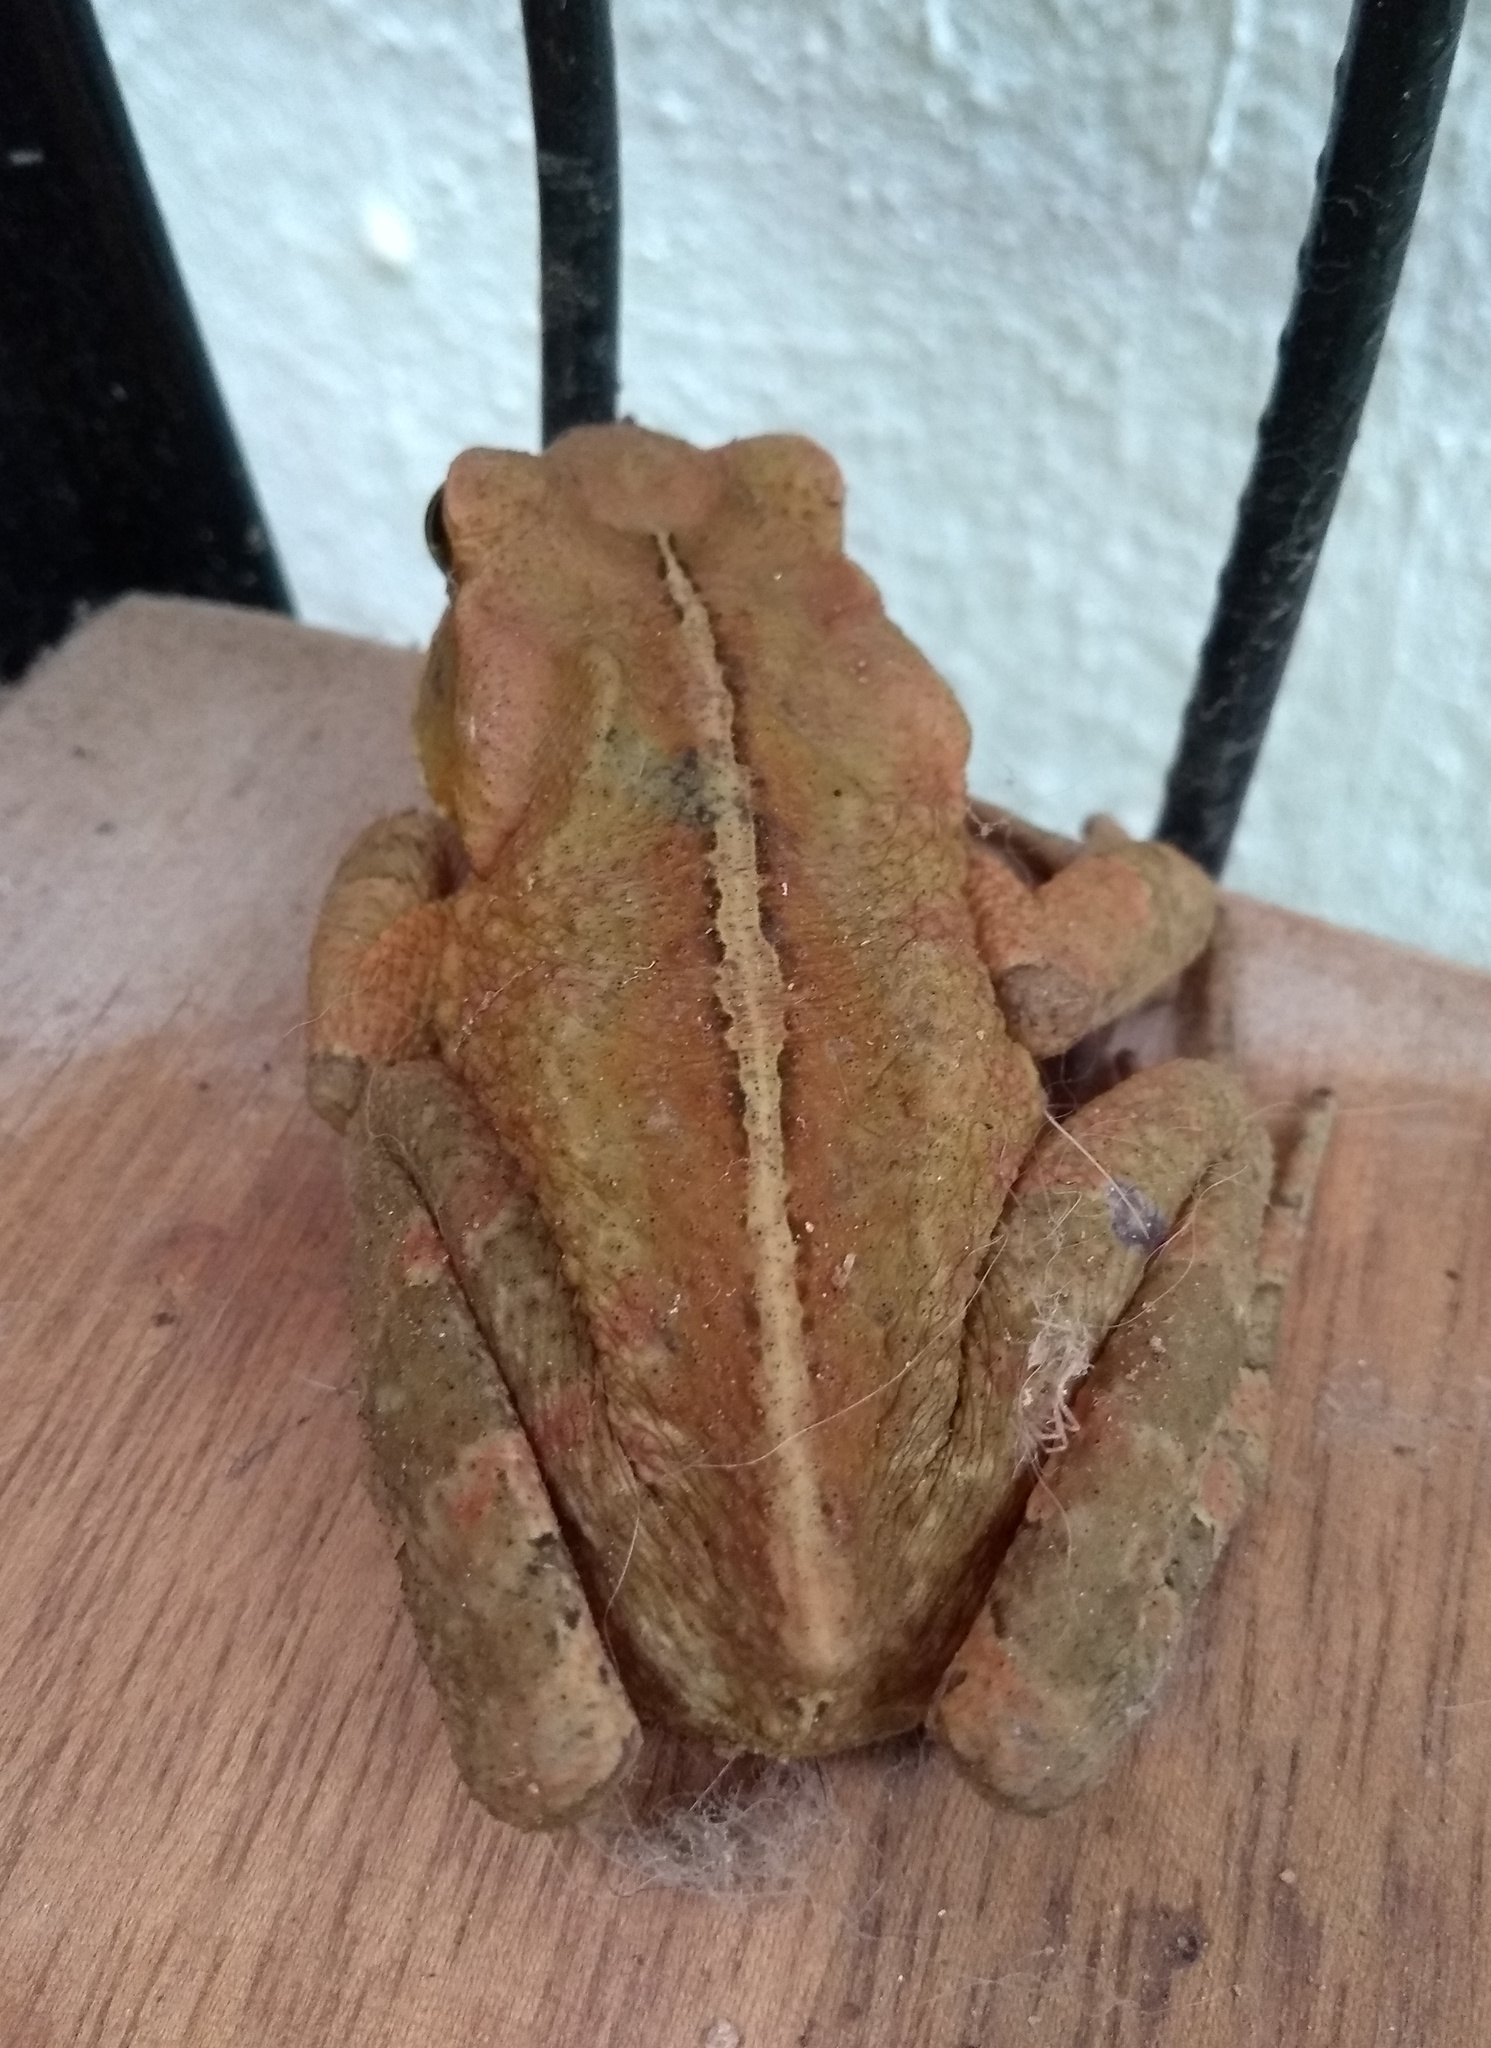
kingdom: Animalia
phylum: Chordata
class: Amphibia
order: Anura
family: Bufonidae
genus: Rhinella
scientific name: Rhinella ornata
